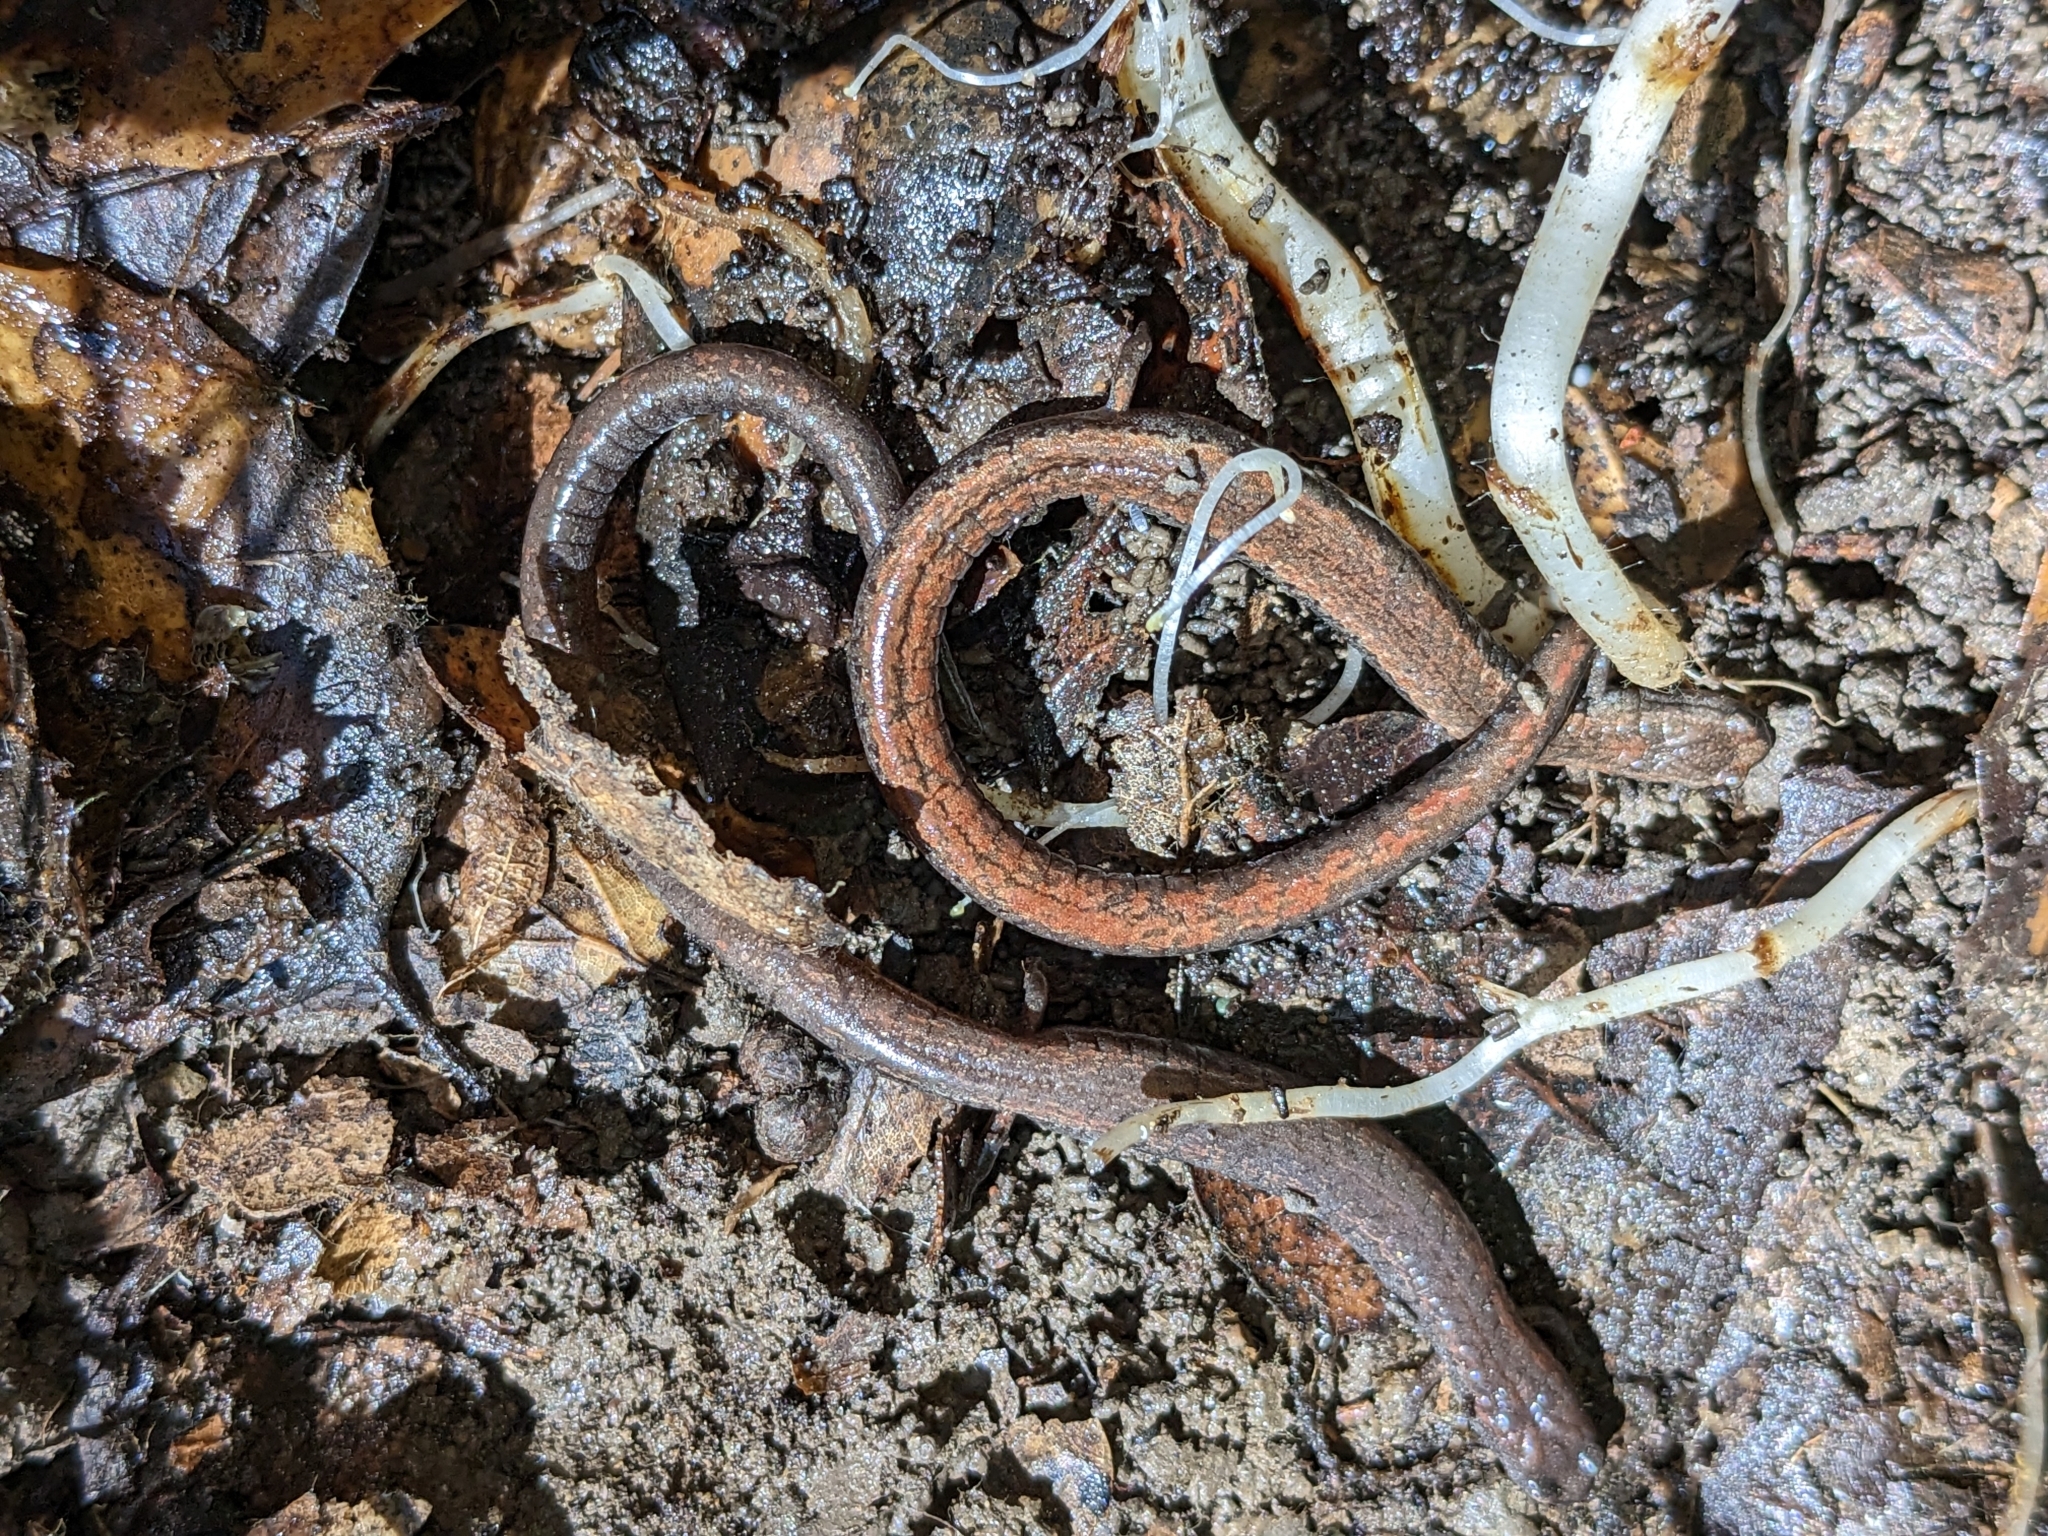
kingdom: Animalia
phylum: Chordata
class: Amphibia
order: Caudata
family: Plethodontidae
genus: Batrachoseps
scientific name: Batrachoseps attenuatus
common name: California slender salamander
